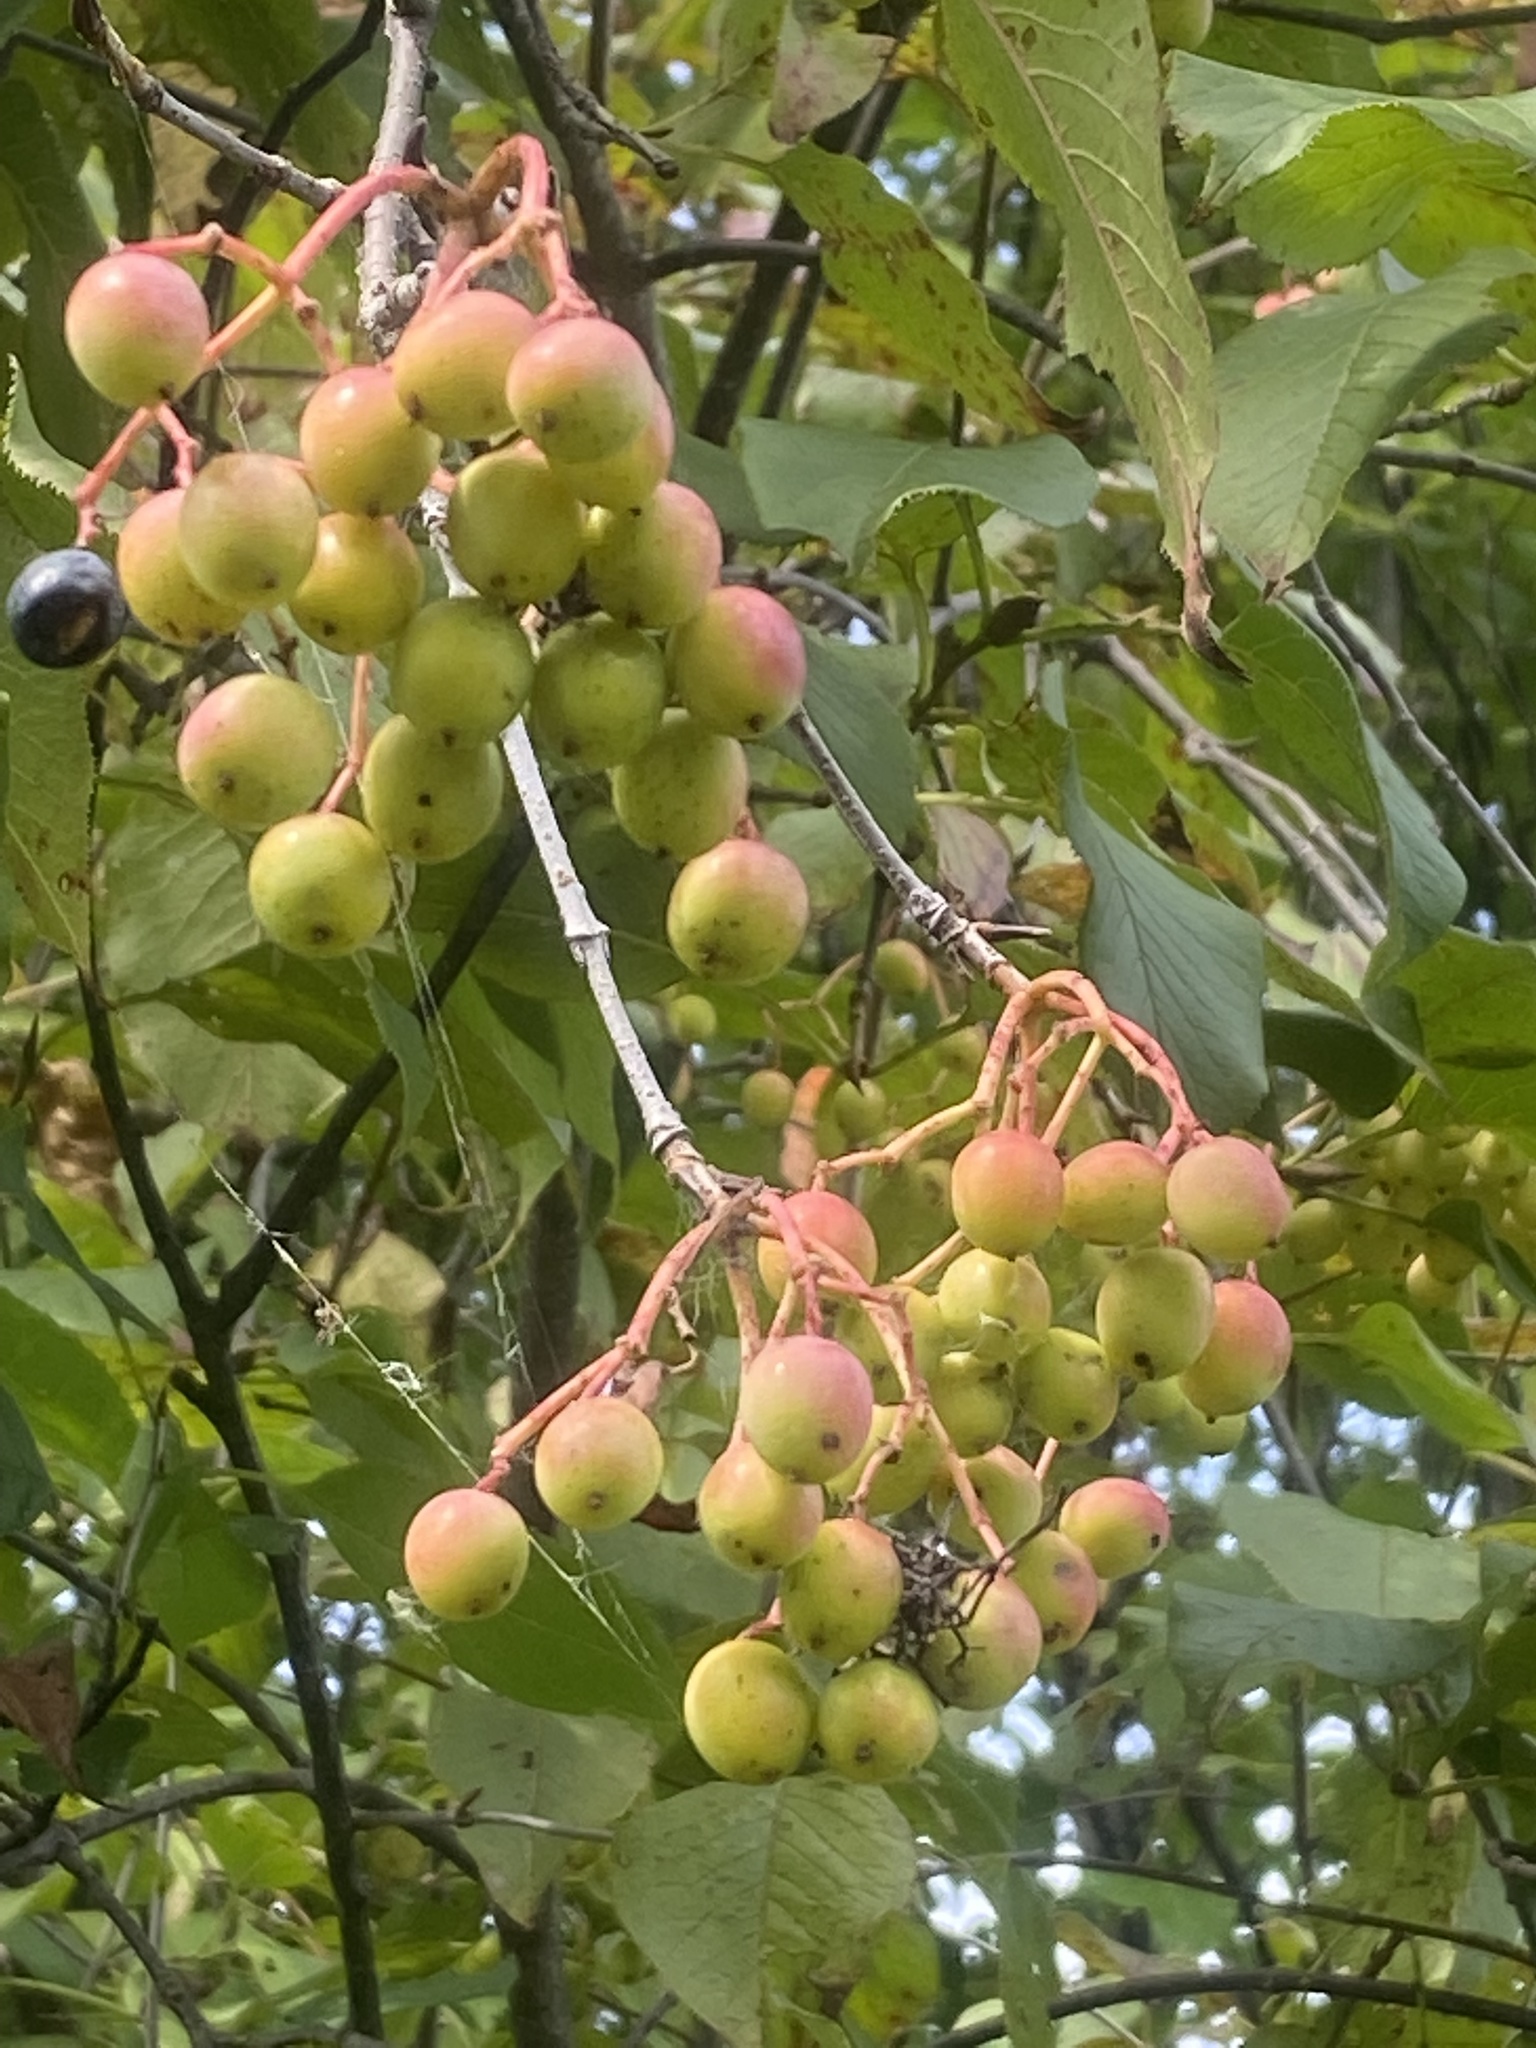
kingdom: Plantae
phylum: Tracheophyta
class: Magnoliopsida
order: Dipsacales
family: Viburnaceae
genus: Viburnum
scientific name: Viburnum lentago
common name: Black haw
